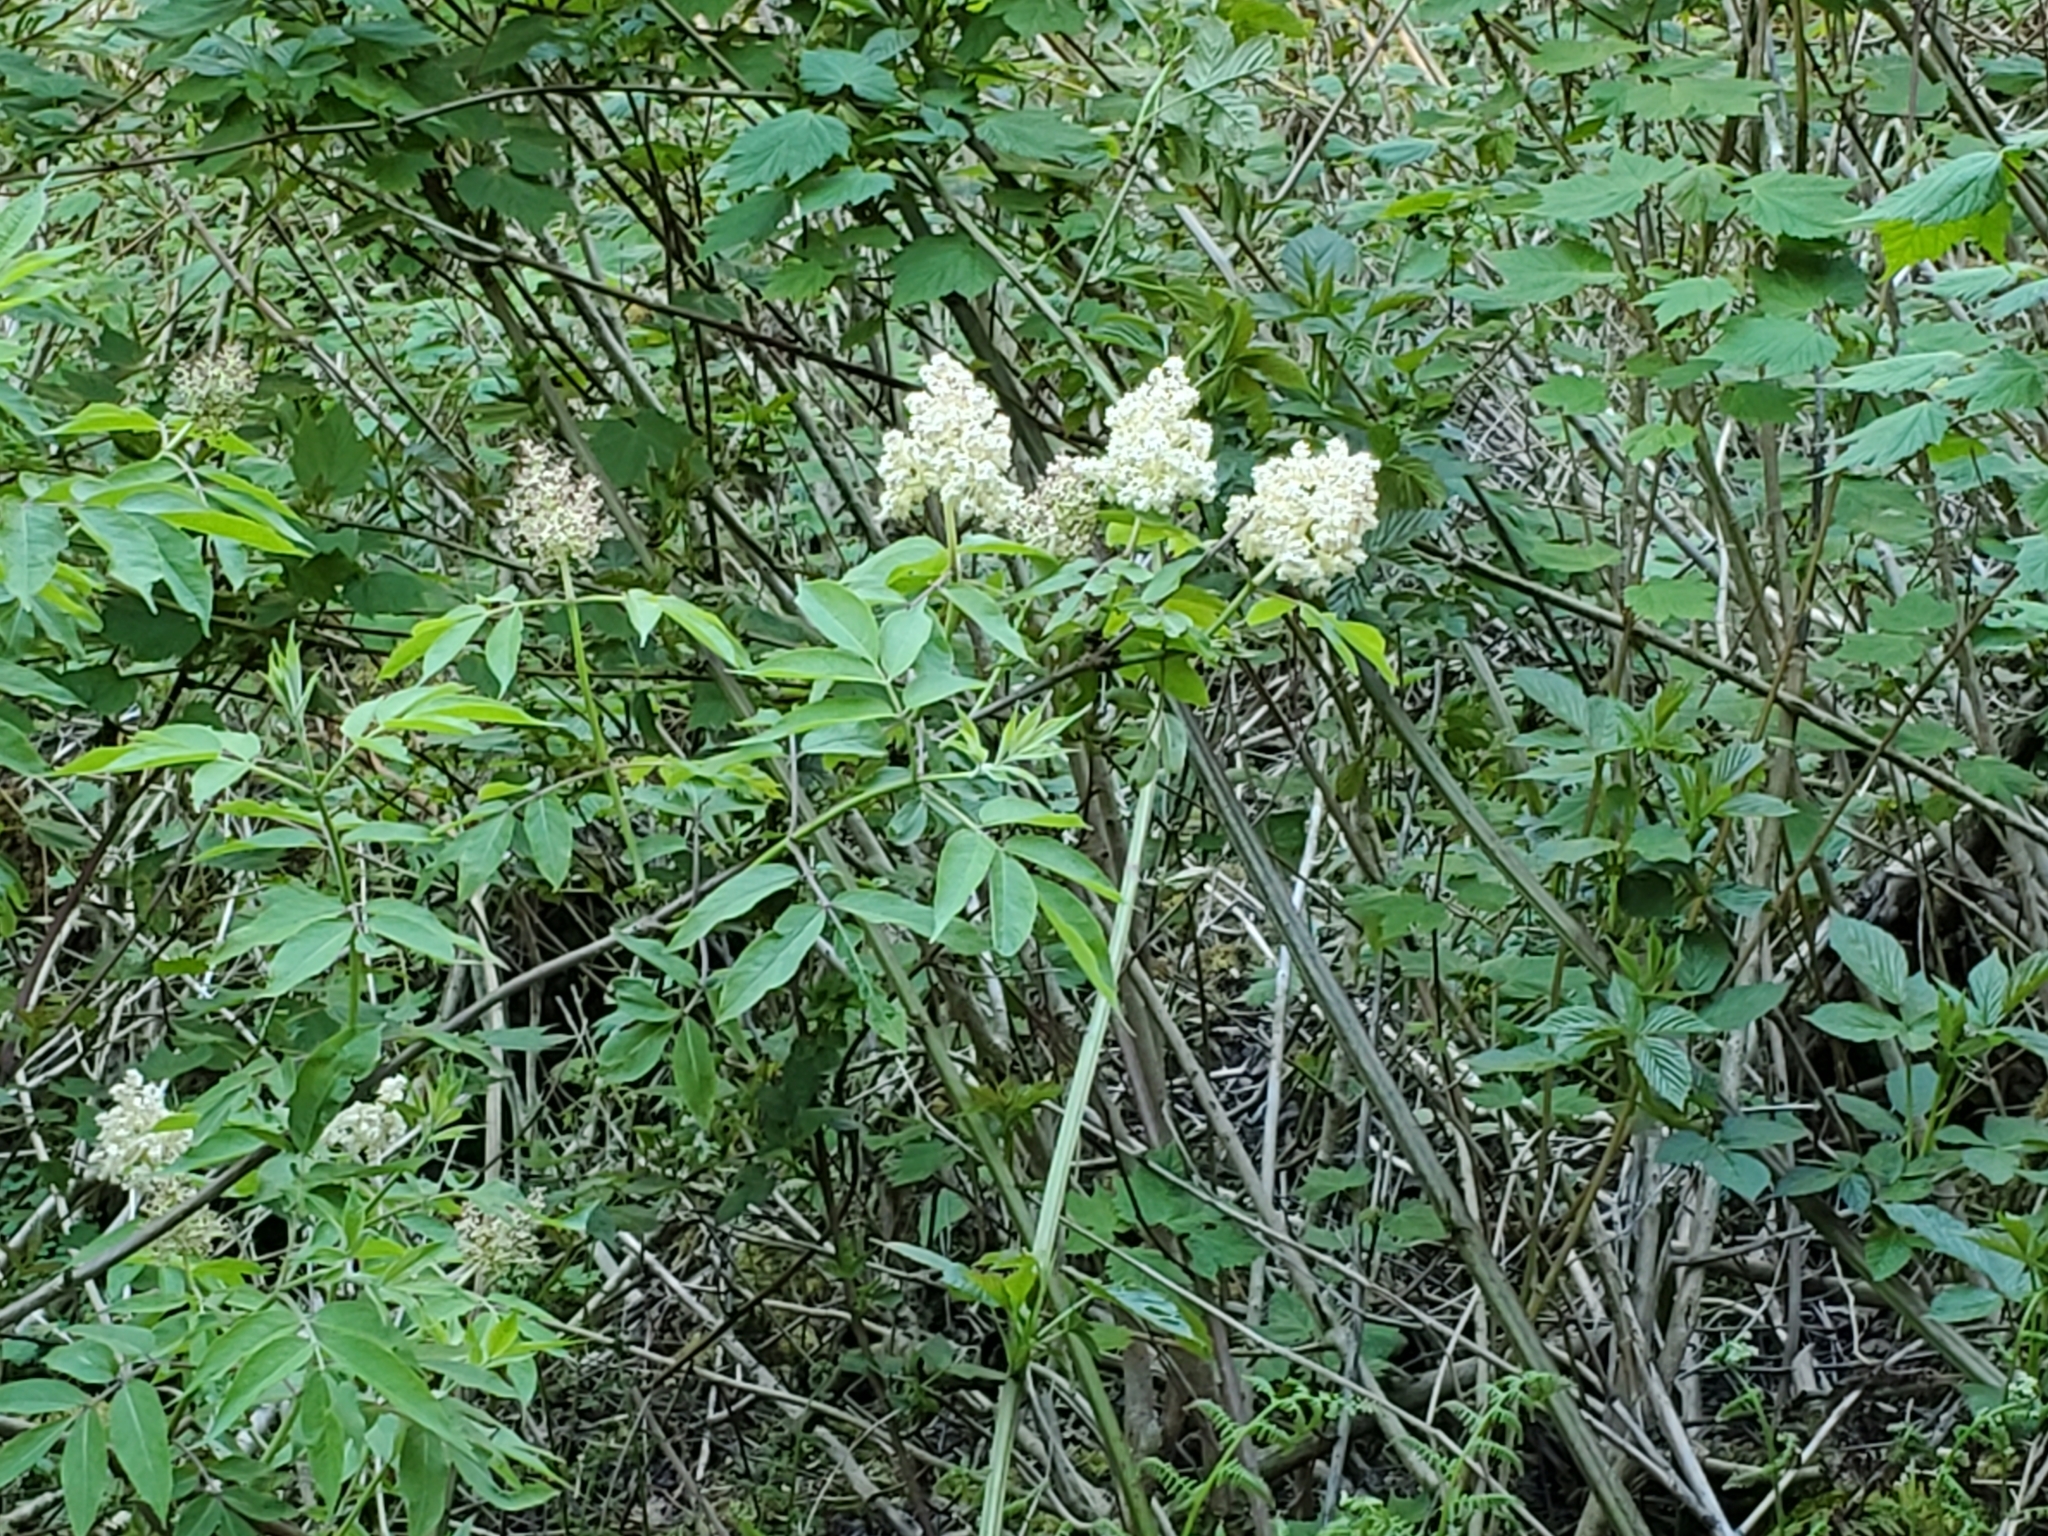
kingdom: Plantae
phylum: Tracheophyta
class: Magnoliopsida
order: Dipsacales
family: Viburnaceae
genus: Sambucus
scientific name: Sambucus racemosa
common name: Red-berried elder
